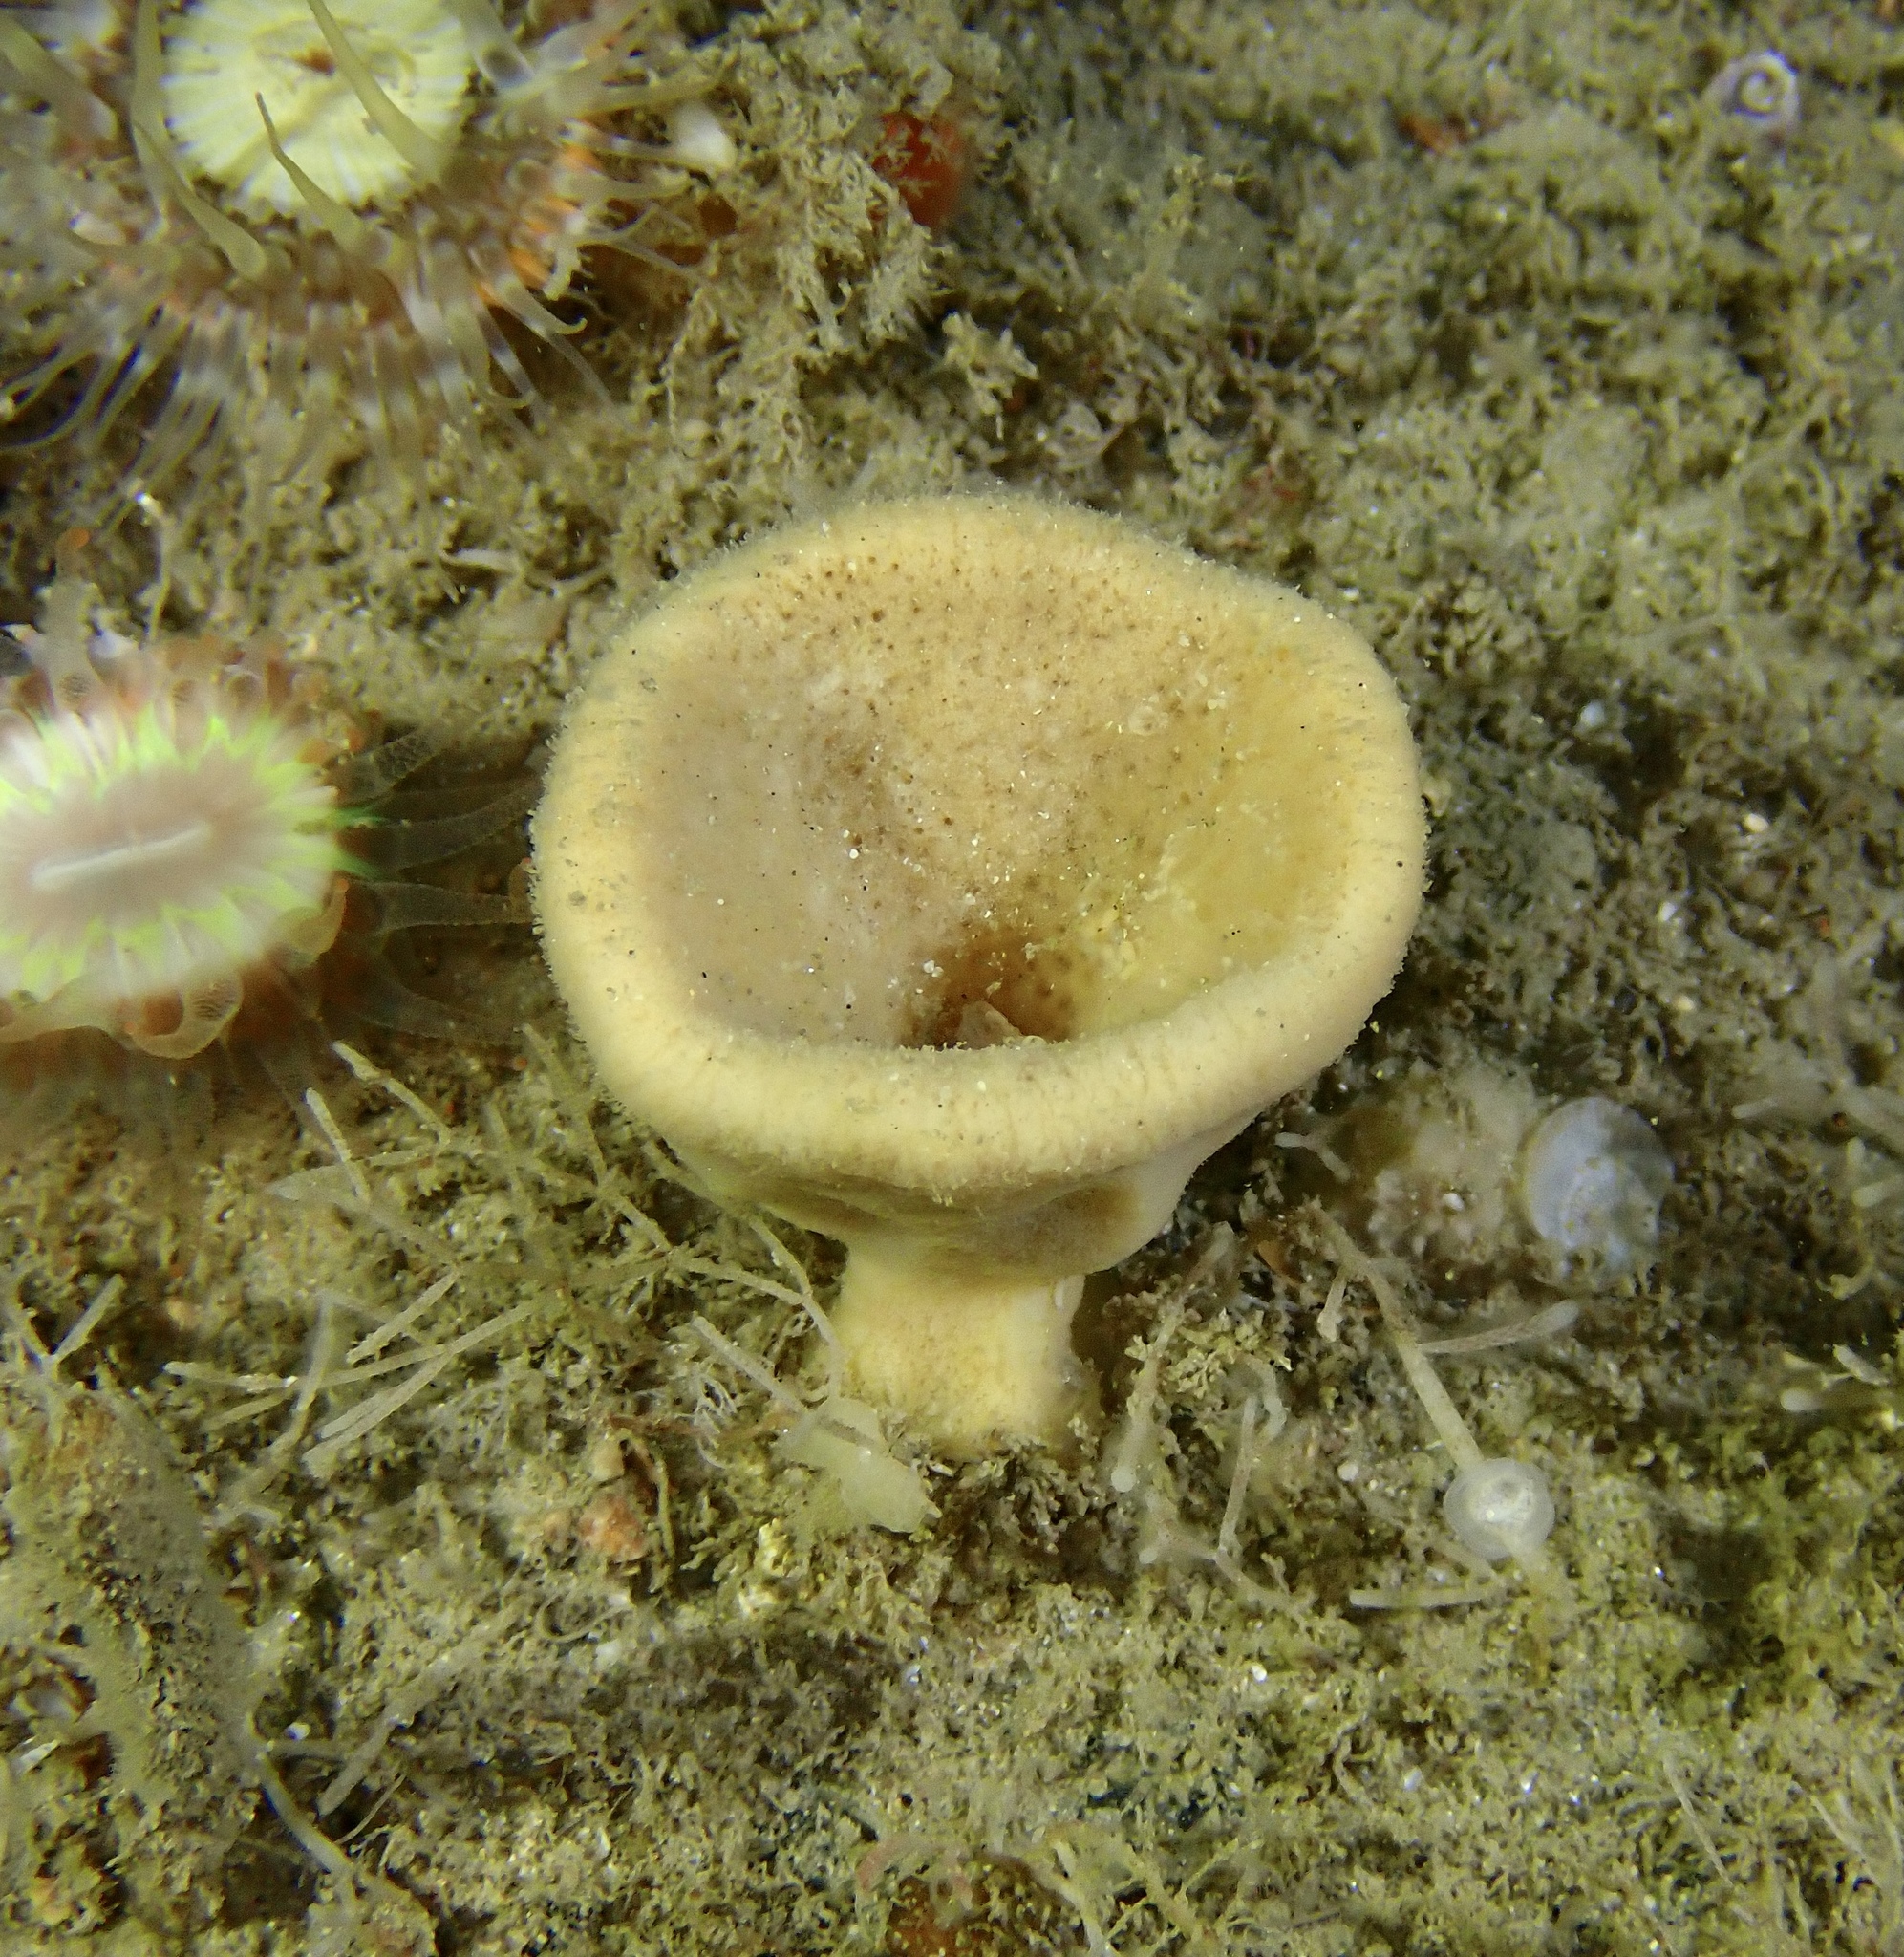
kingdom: Animalia
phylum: Porifera
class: Demospongiae
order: Axinellida
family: Axinellidae
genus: Axinella
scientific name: Axinella infundibuliformis
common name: North atlantic cup sponge
